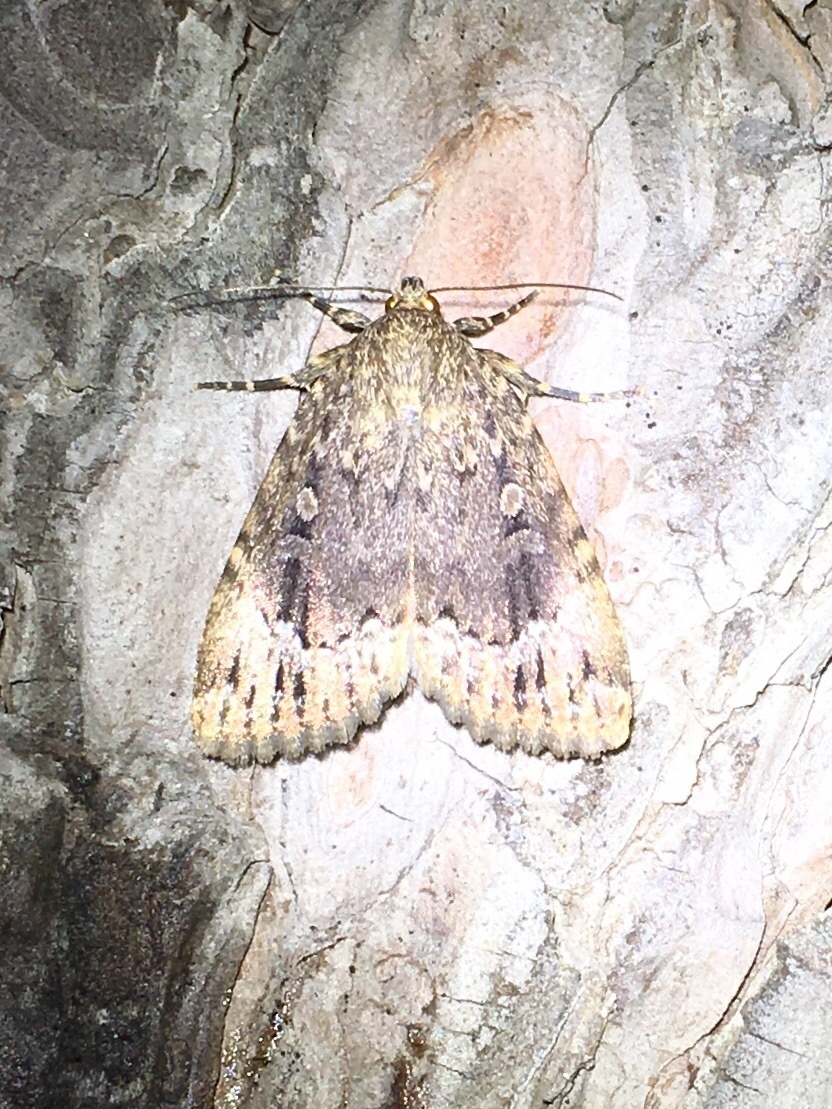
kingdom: Animalia
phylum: Arthropoda
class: Insecta
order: Lepidoptera
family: Noctuidae
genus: Amphipyra
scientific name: Amphipyra pyramidoides
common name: American copper underwing
